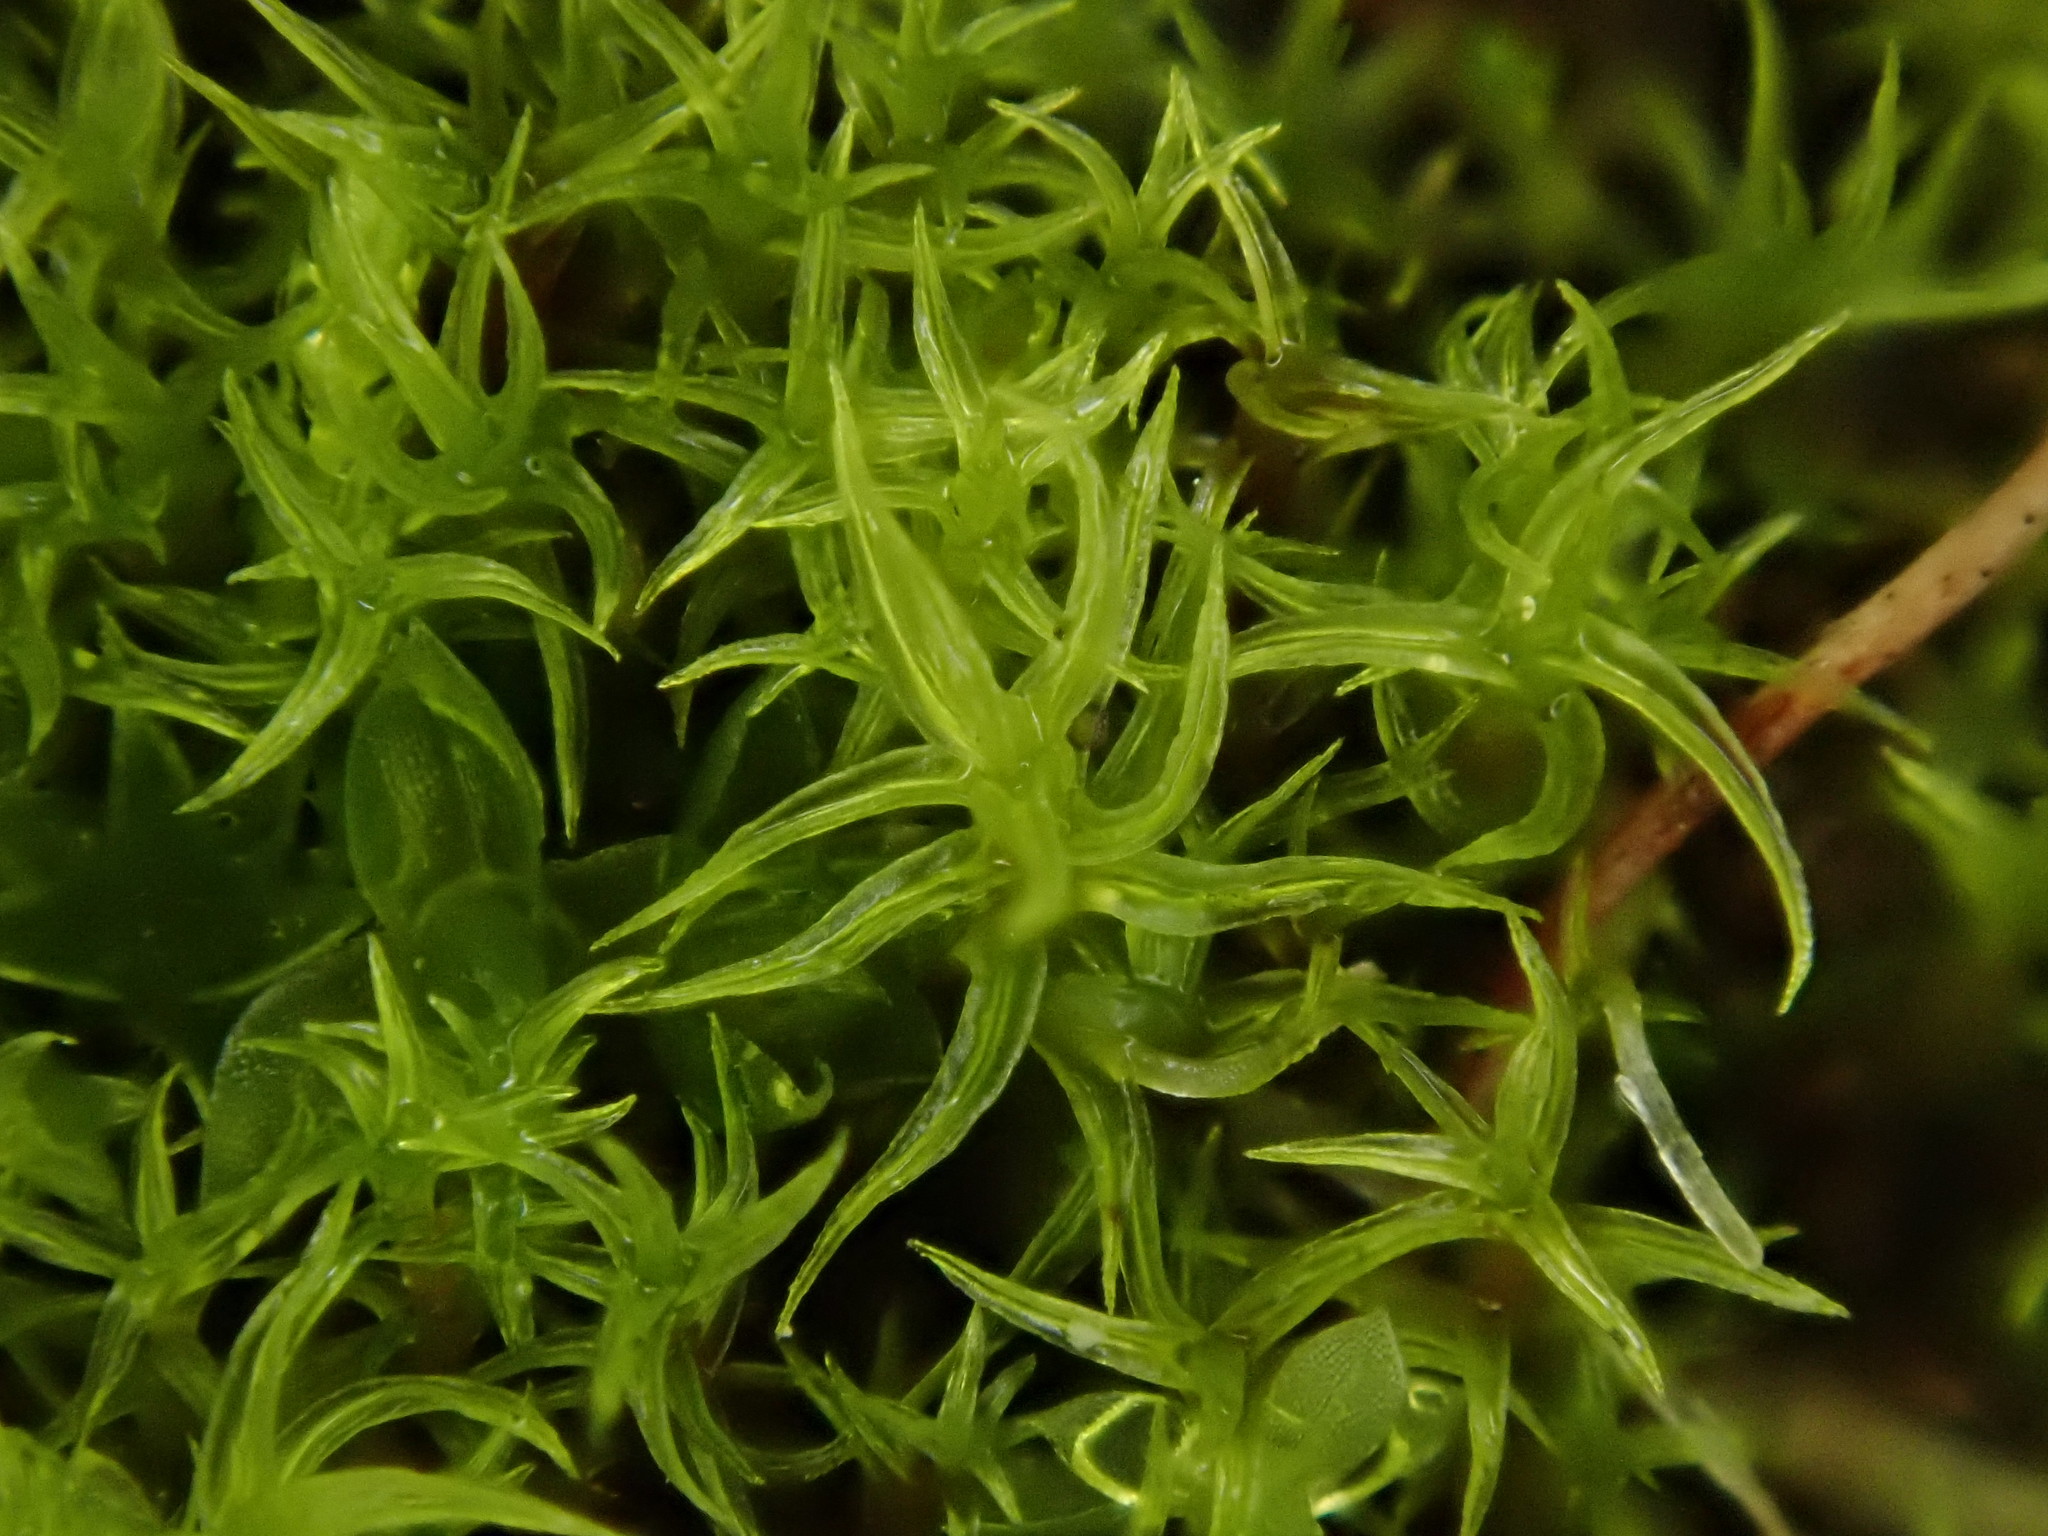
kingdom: Plantae
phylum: Bryophyta
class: Bryopsida
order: Pottiales
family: Pottiaceae
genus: Vinealobryum
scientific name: Vinealobryum insulanum
